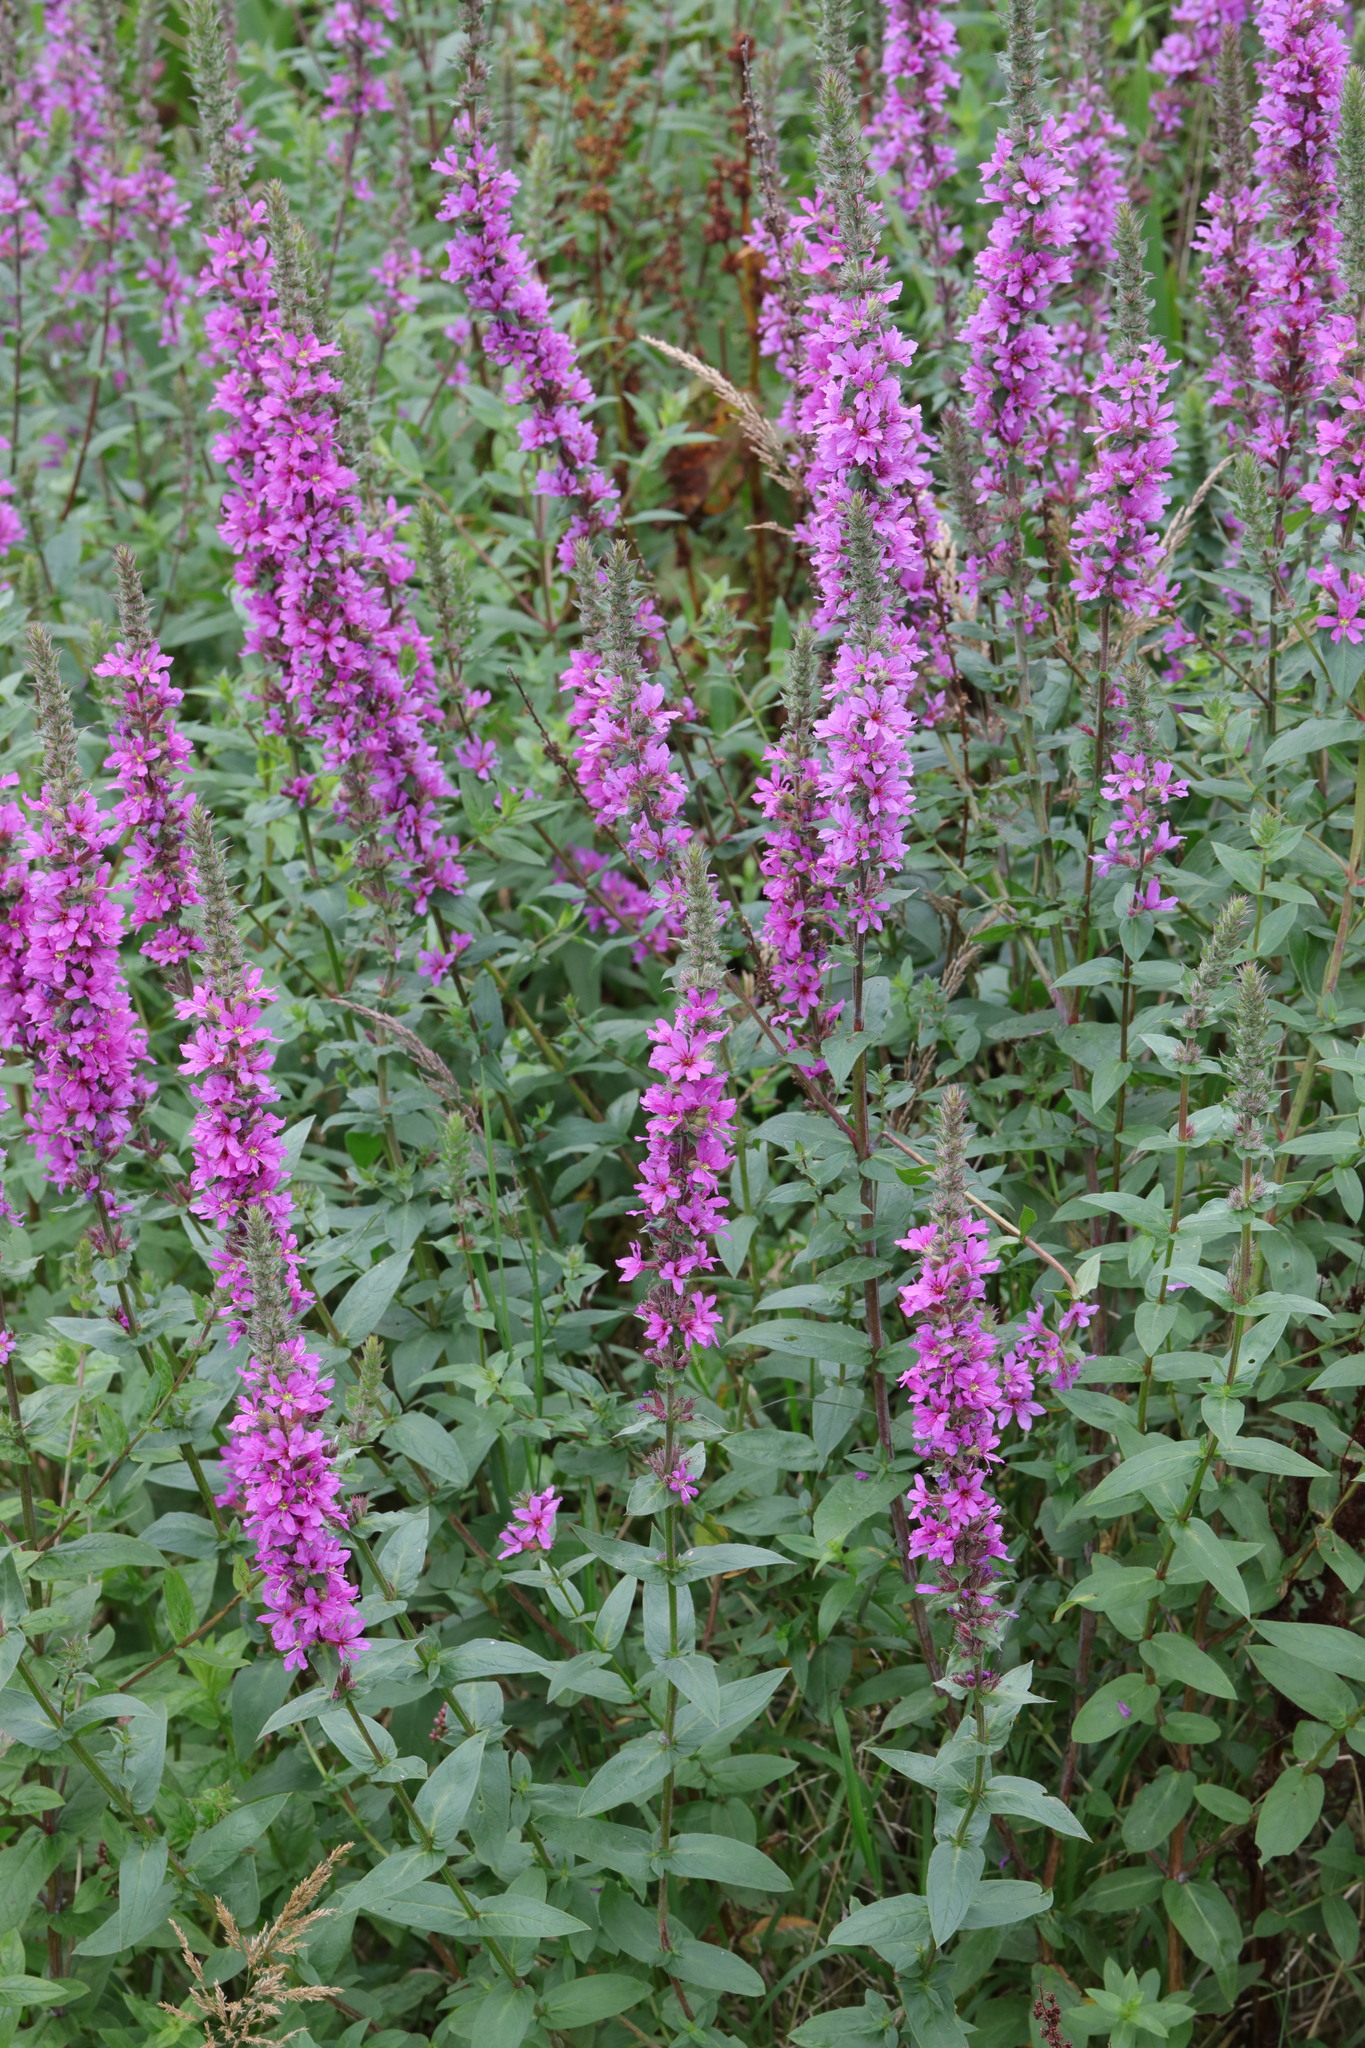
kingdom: Plantae
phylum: Tracheophyta
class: Magnoliopsida
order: Myrtales
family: Lythraceae
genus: Lythrum
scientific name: Lythrum salicaria
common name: Purple loosestrife
